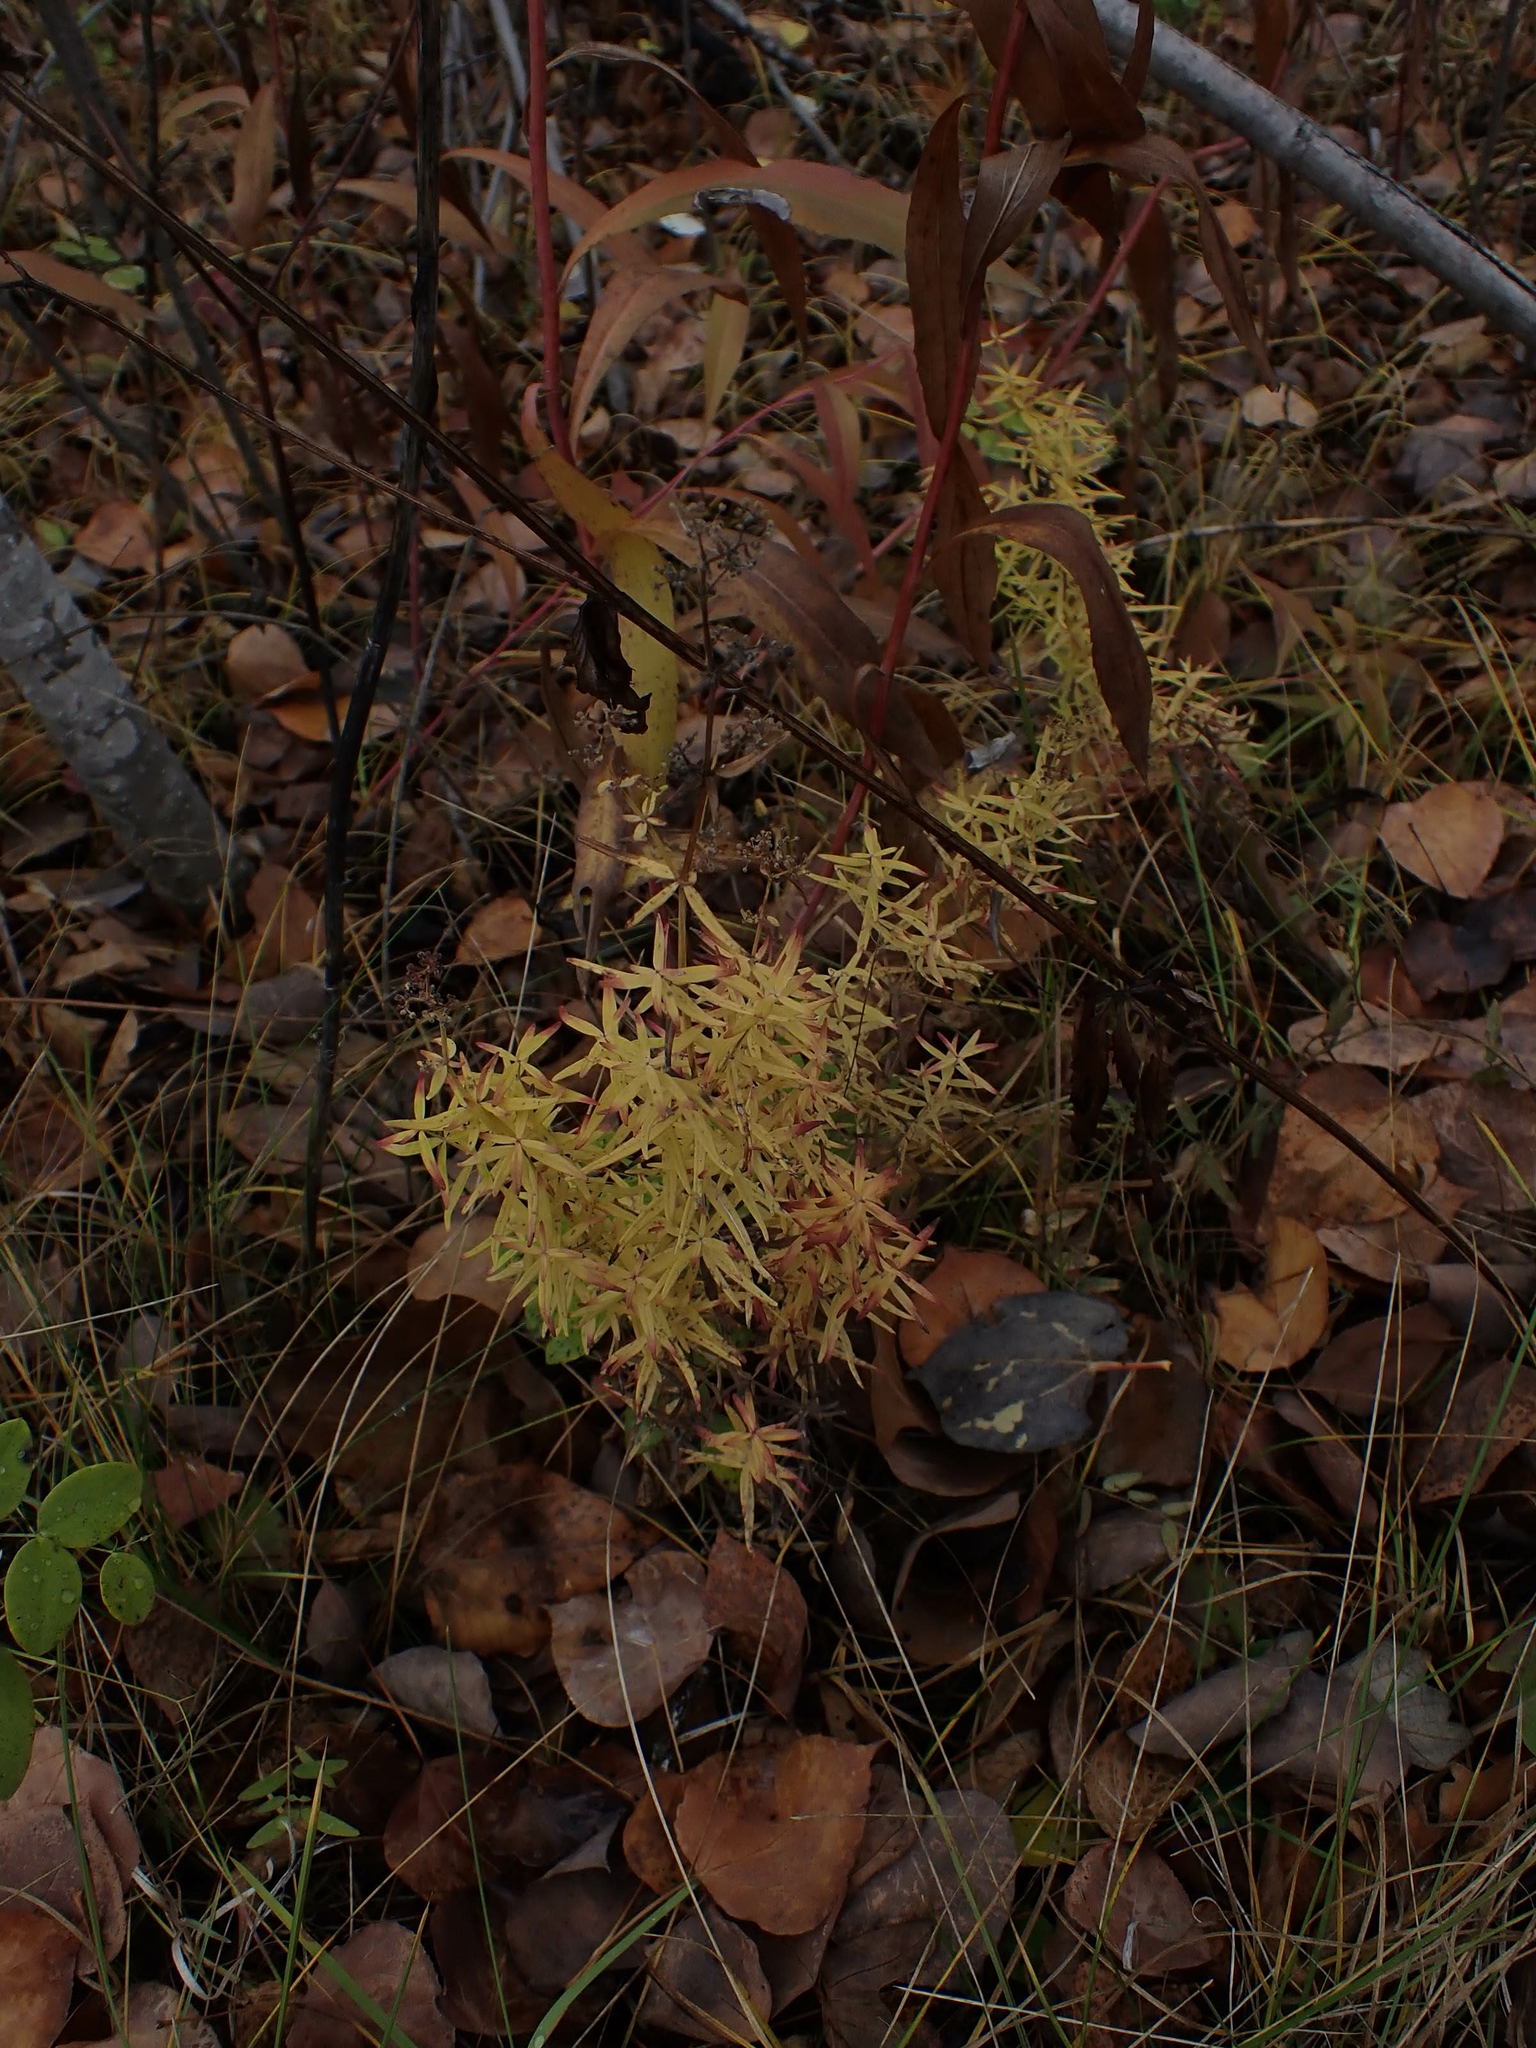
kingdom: Plantae
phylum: Tracheophyta
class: Magnoliopsida
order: Gentianales
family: Rubiaceae
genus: Galium
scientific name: Galium boreale
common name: Northern bedstraw
